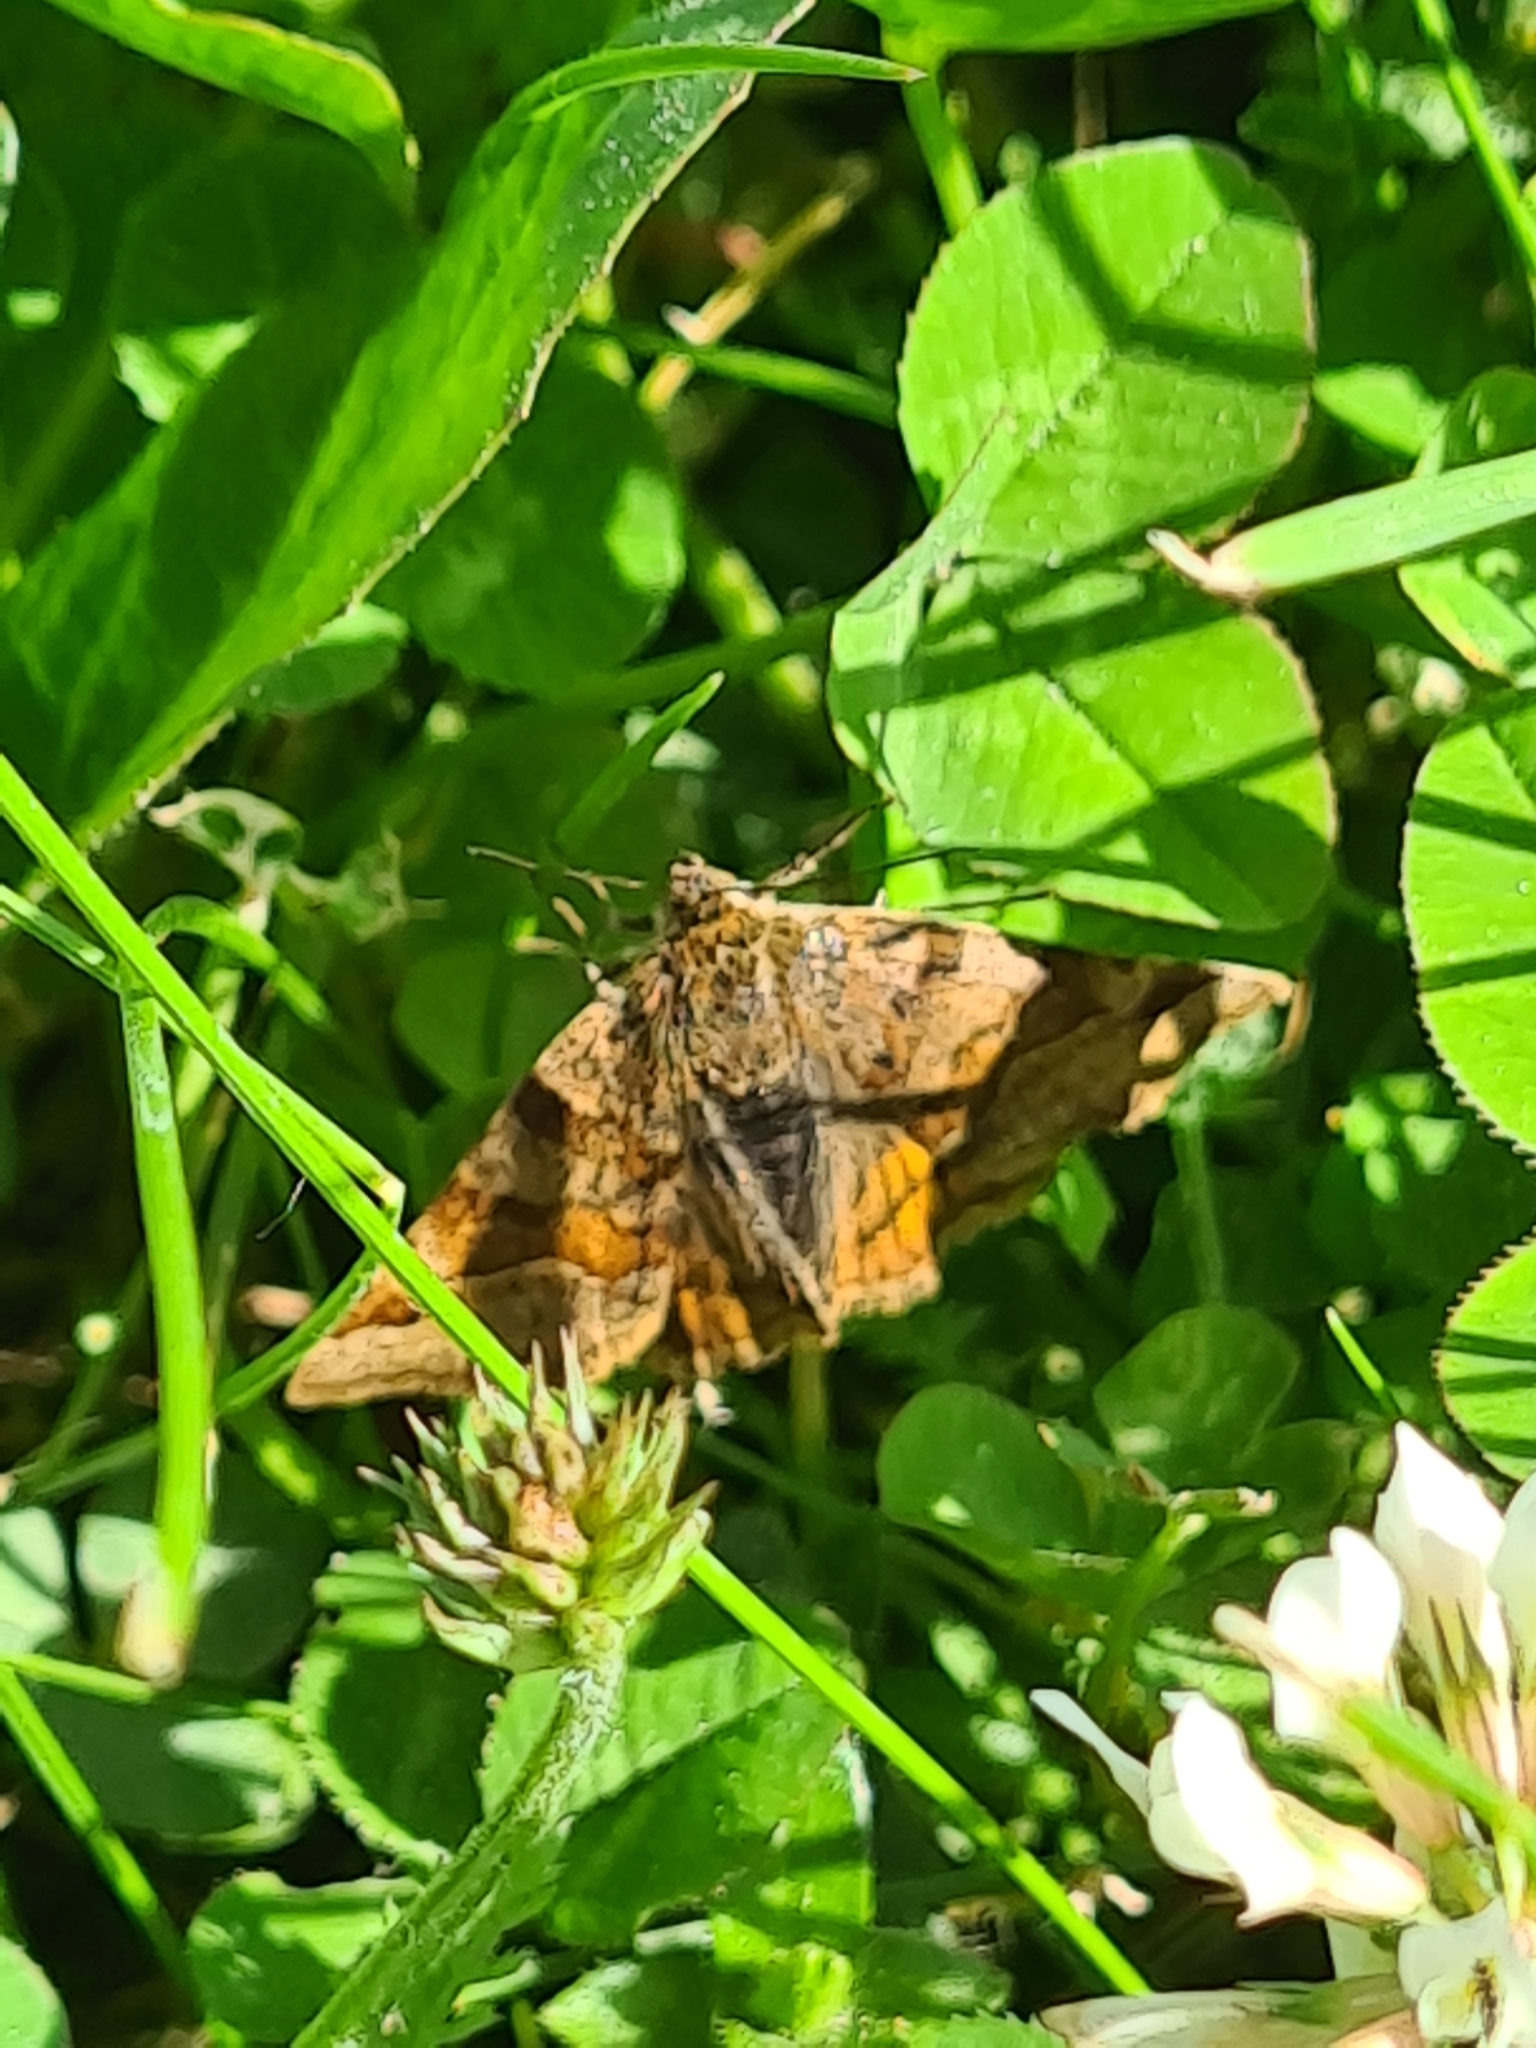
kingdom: Animalia
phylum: Arthropoda
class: Insecta
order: Lepidoptera
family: Erebidae
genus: Euclidia
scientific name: Euclidia glyphica
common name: Burnet companion
